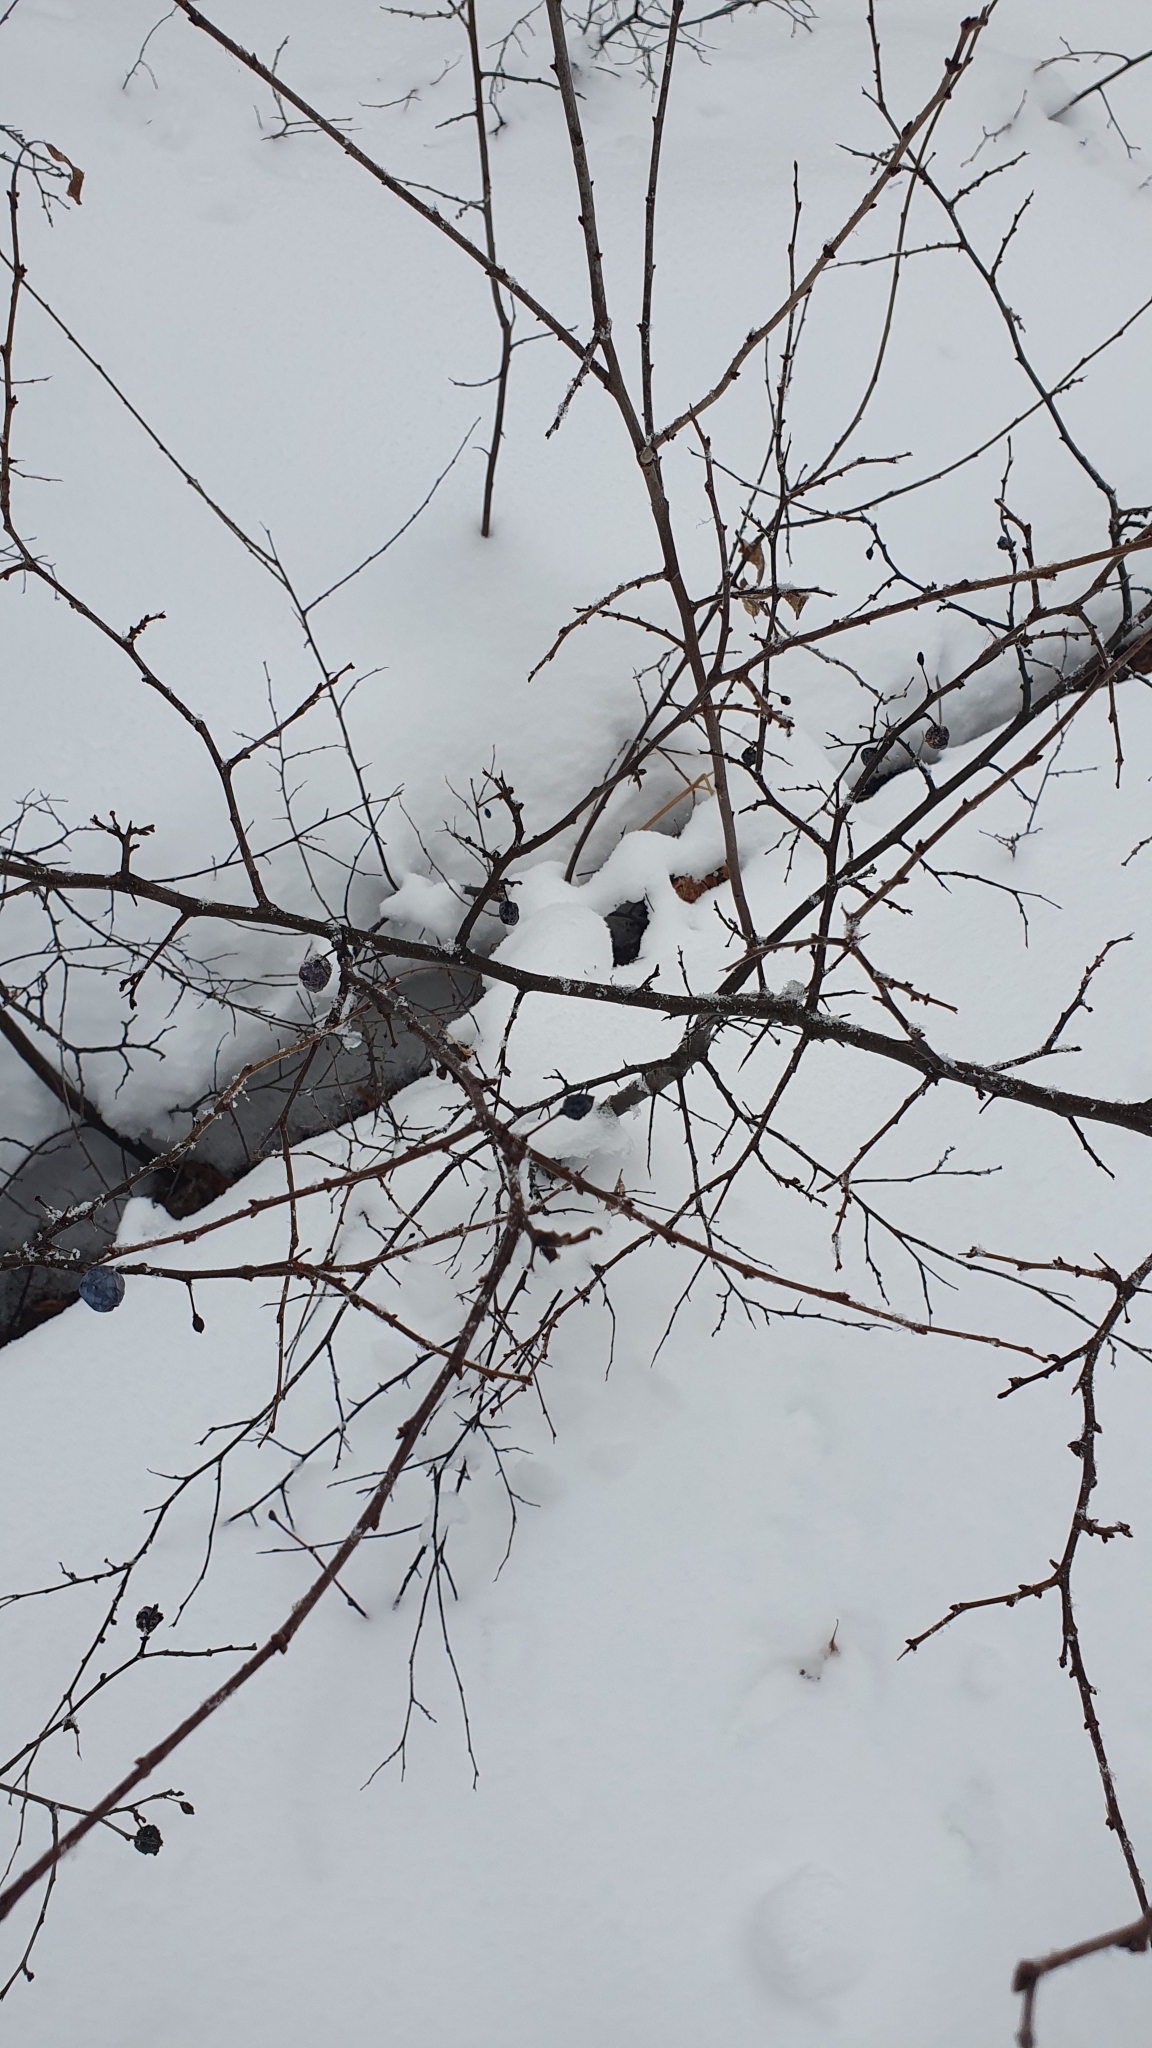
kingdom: Plantae
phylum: Tracheophyta
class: Magnoliopsida
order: Rosales
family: Rosaceae
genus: Prunus
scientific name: Prunus spinosa
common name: Blackthorn
